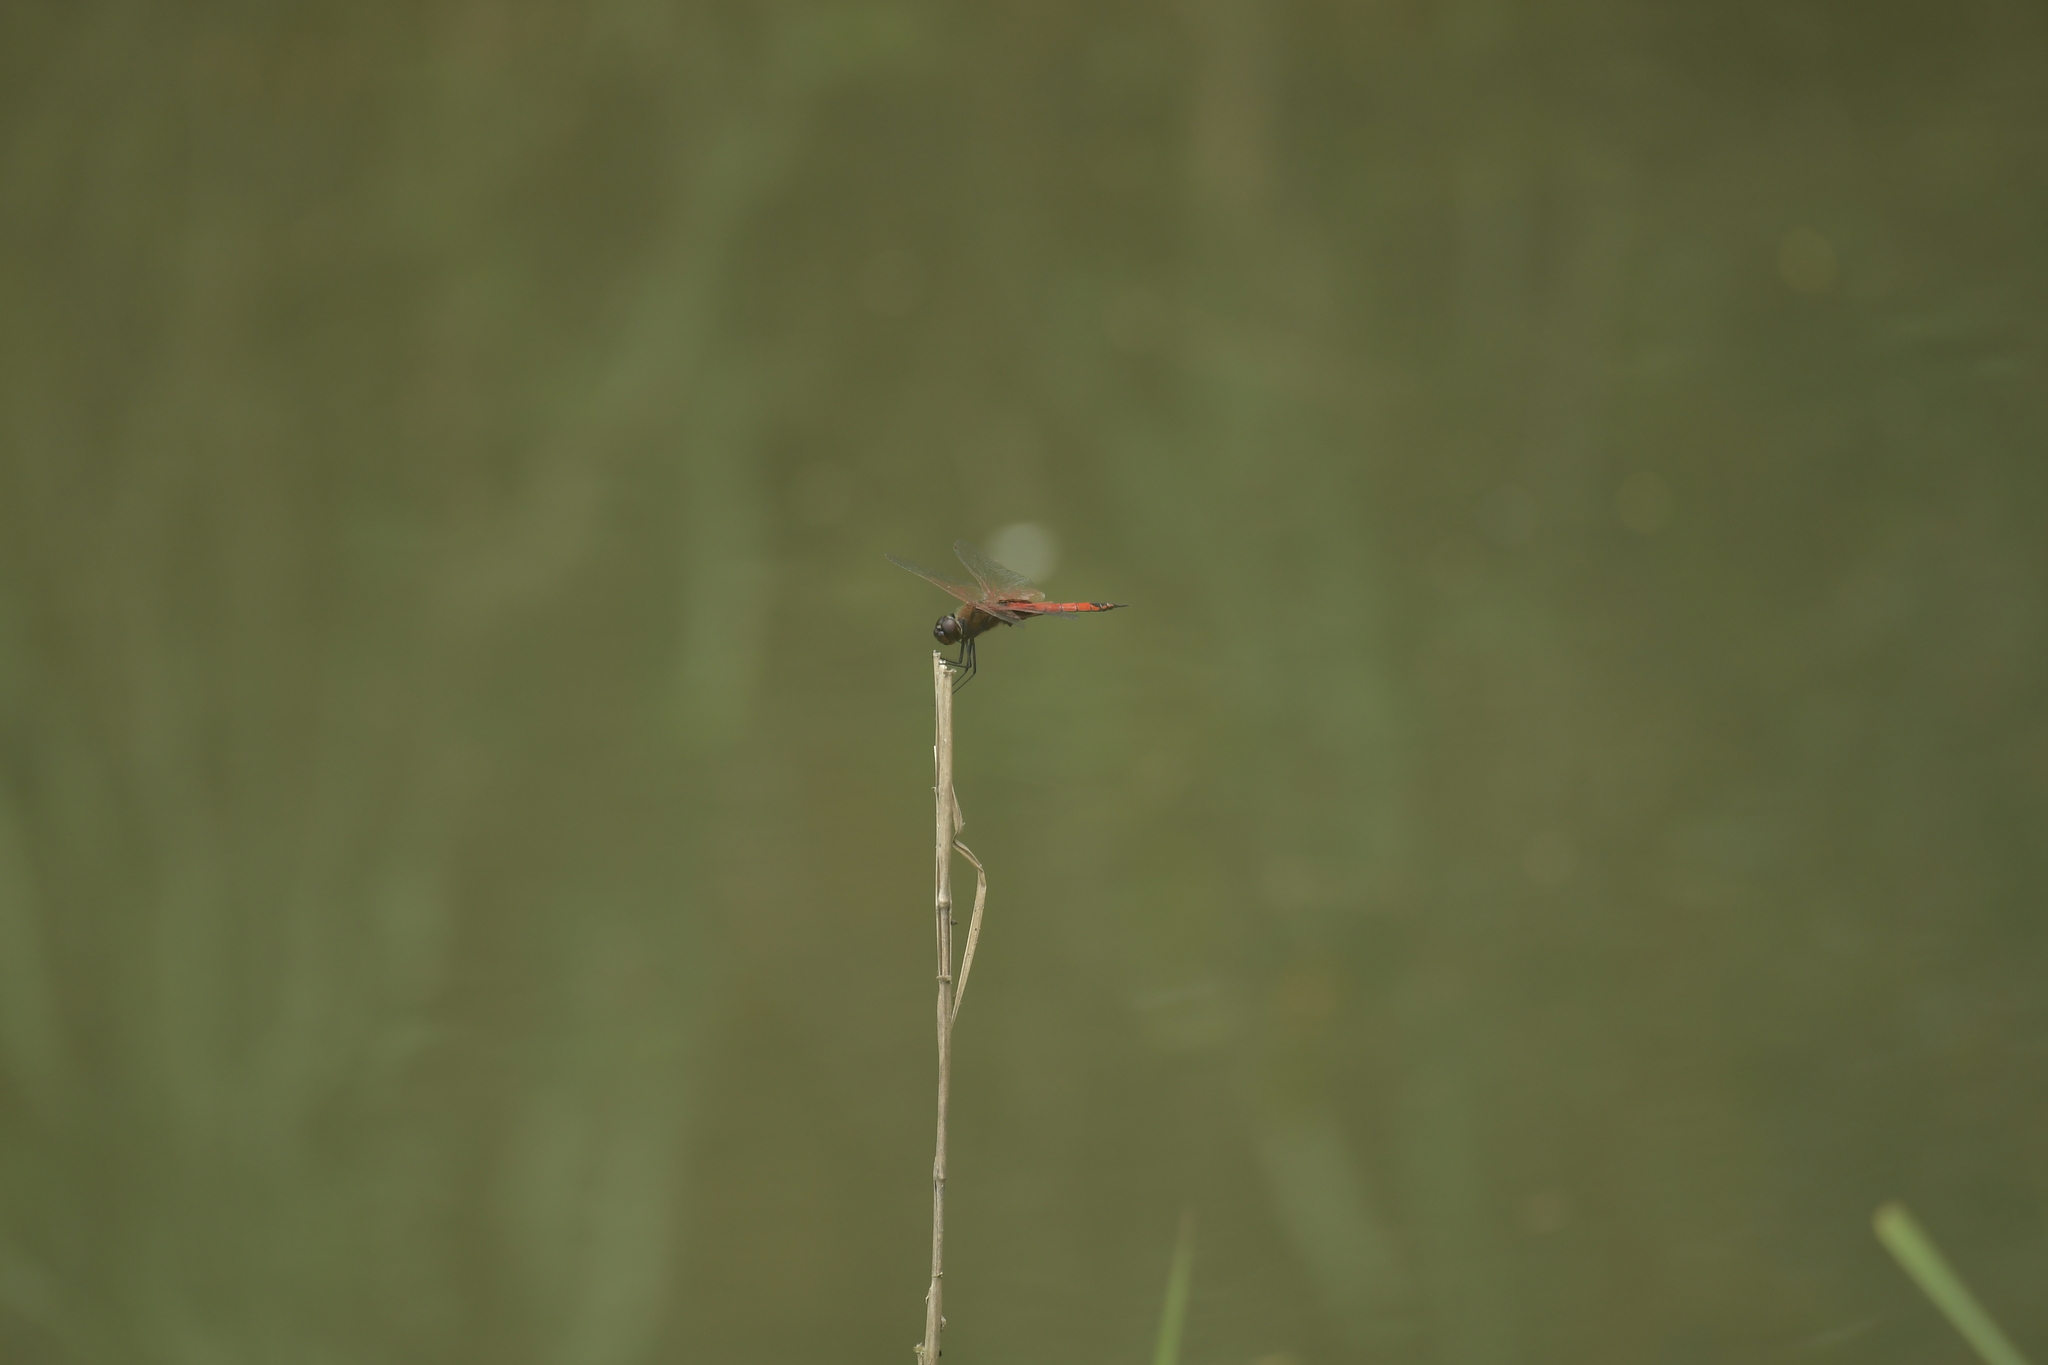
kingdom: Animalia
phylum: Arthropoda
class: Insecta
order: Odonata
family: Libellulidae
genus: Tramea
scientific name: Tramea transmarina
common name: Red glider dragonfly
